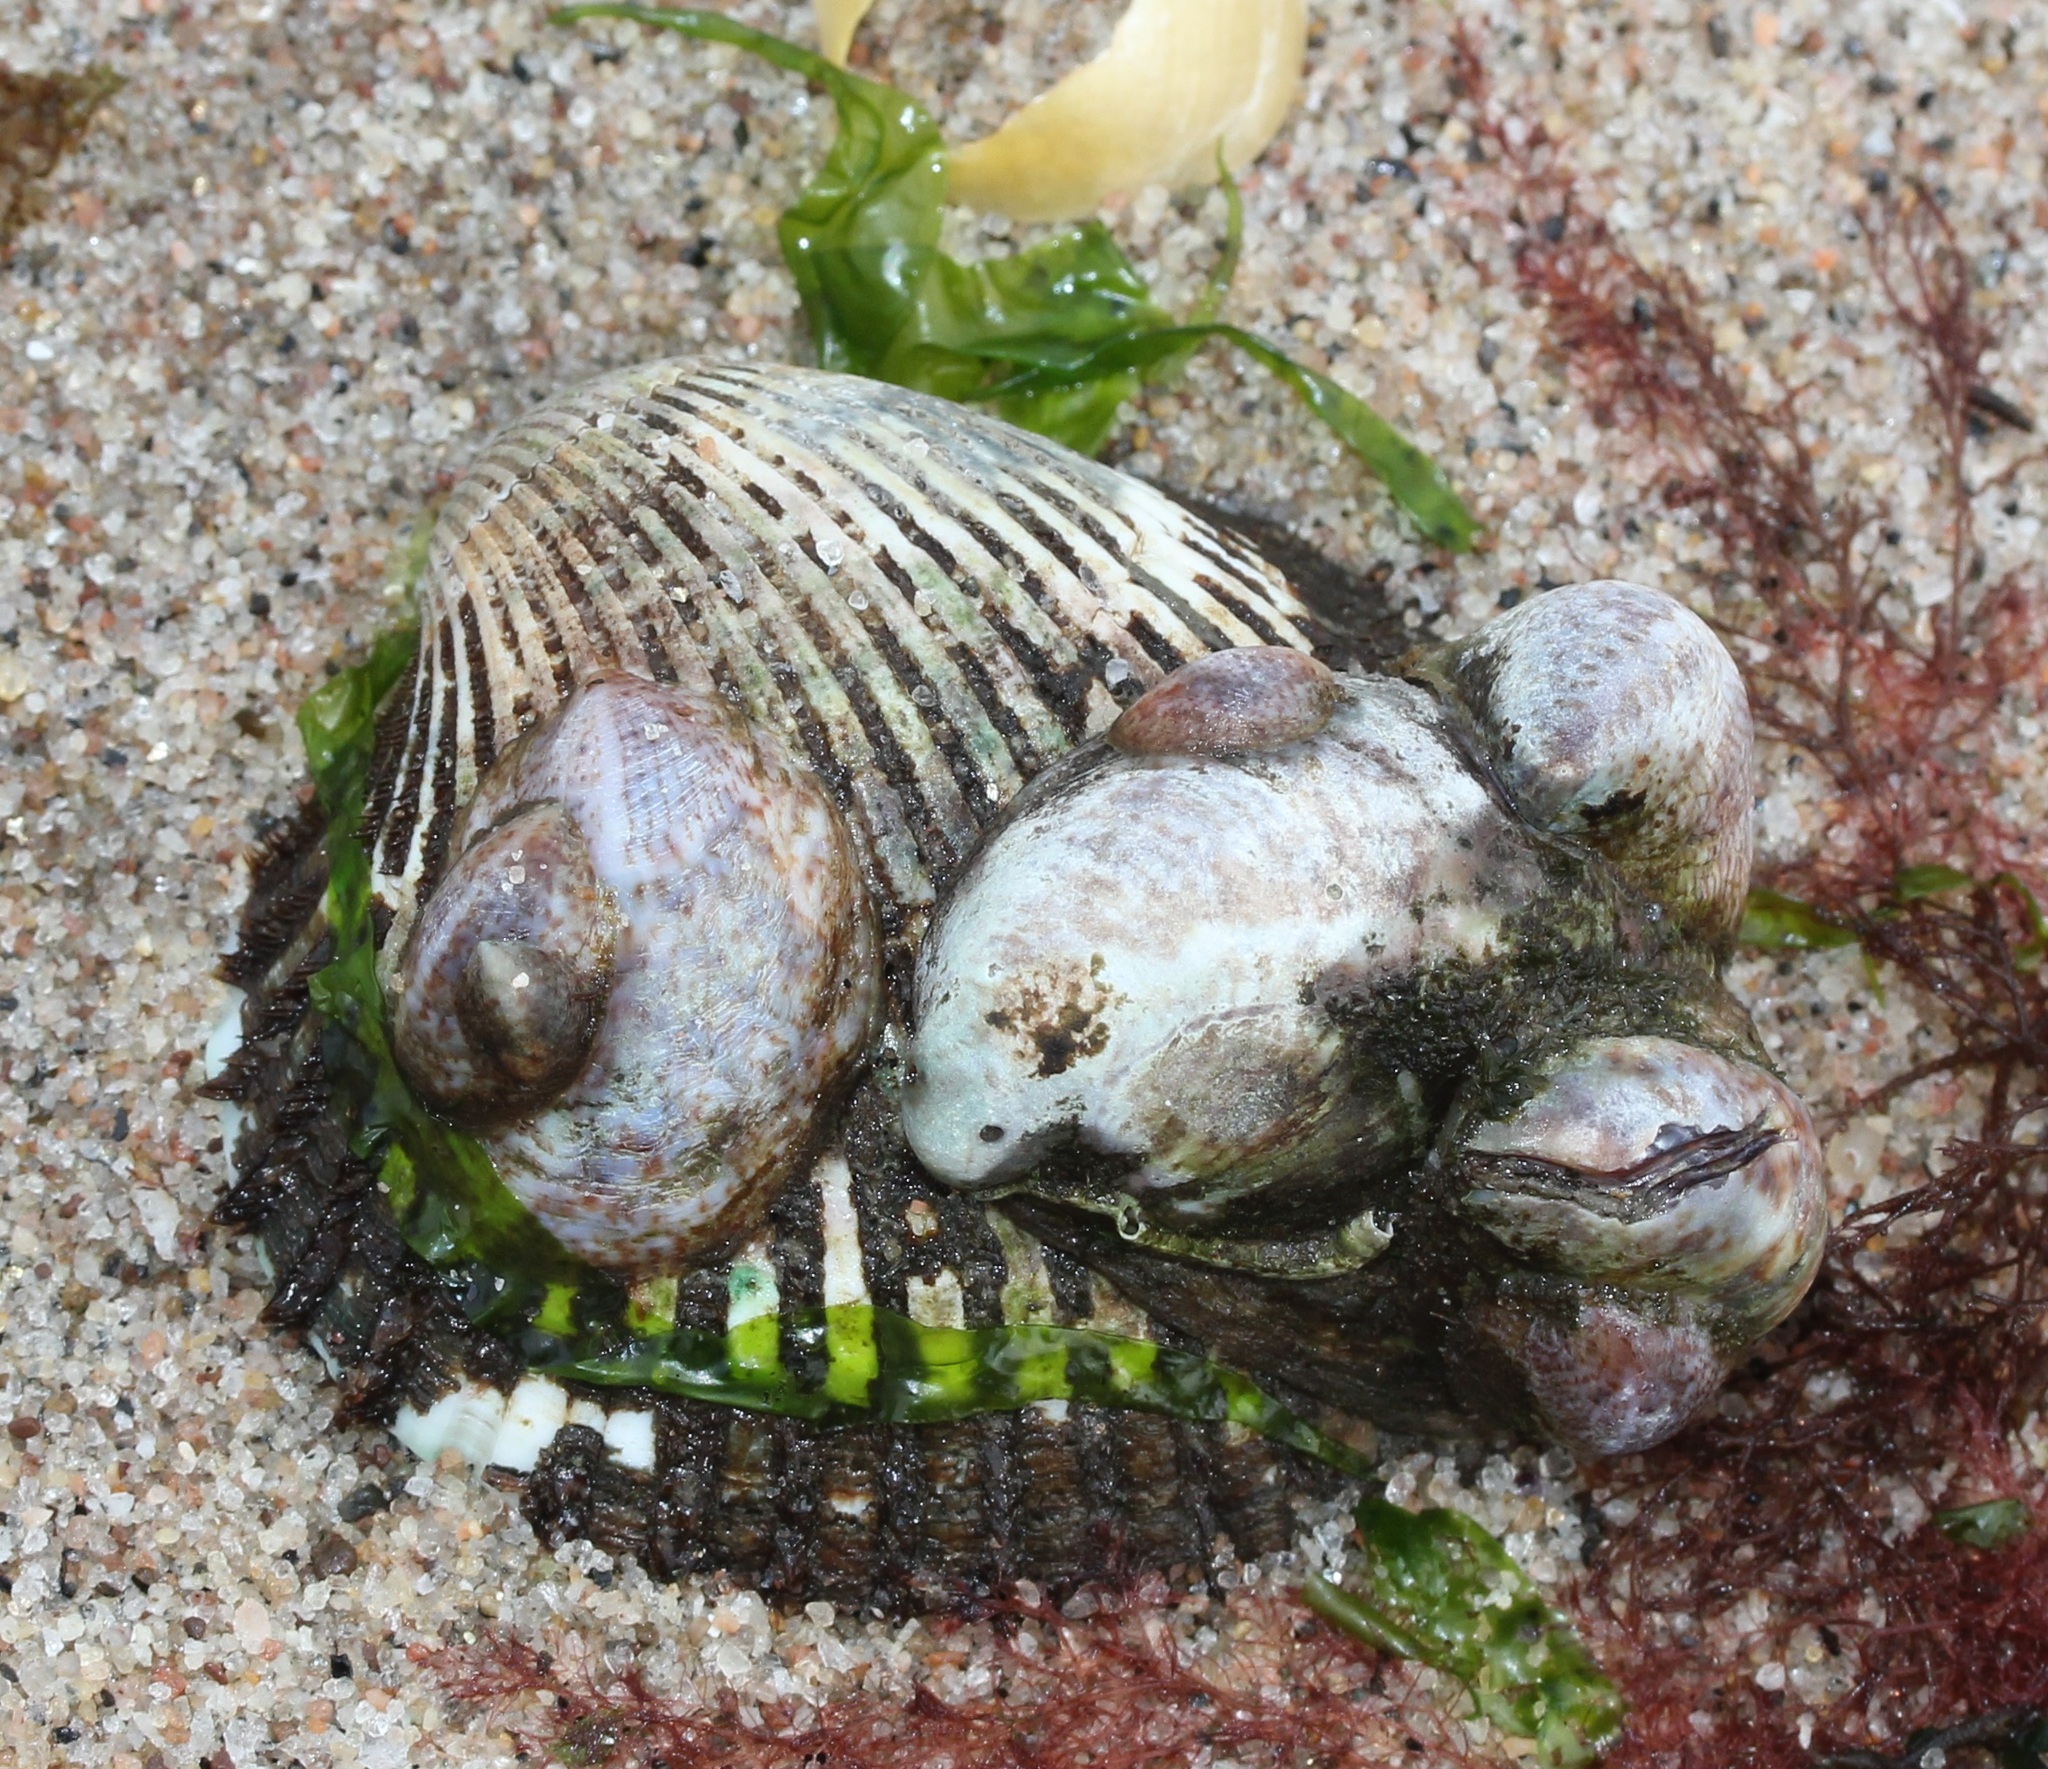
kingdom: Animalia
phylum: Mollusca
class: Bivalvia
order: Arcida
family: Arcidae
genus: Lunarca
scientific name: Lunarca ovalis
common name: Blood ark
